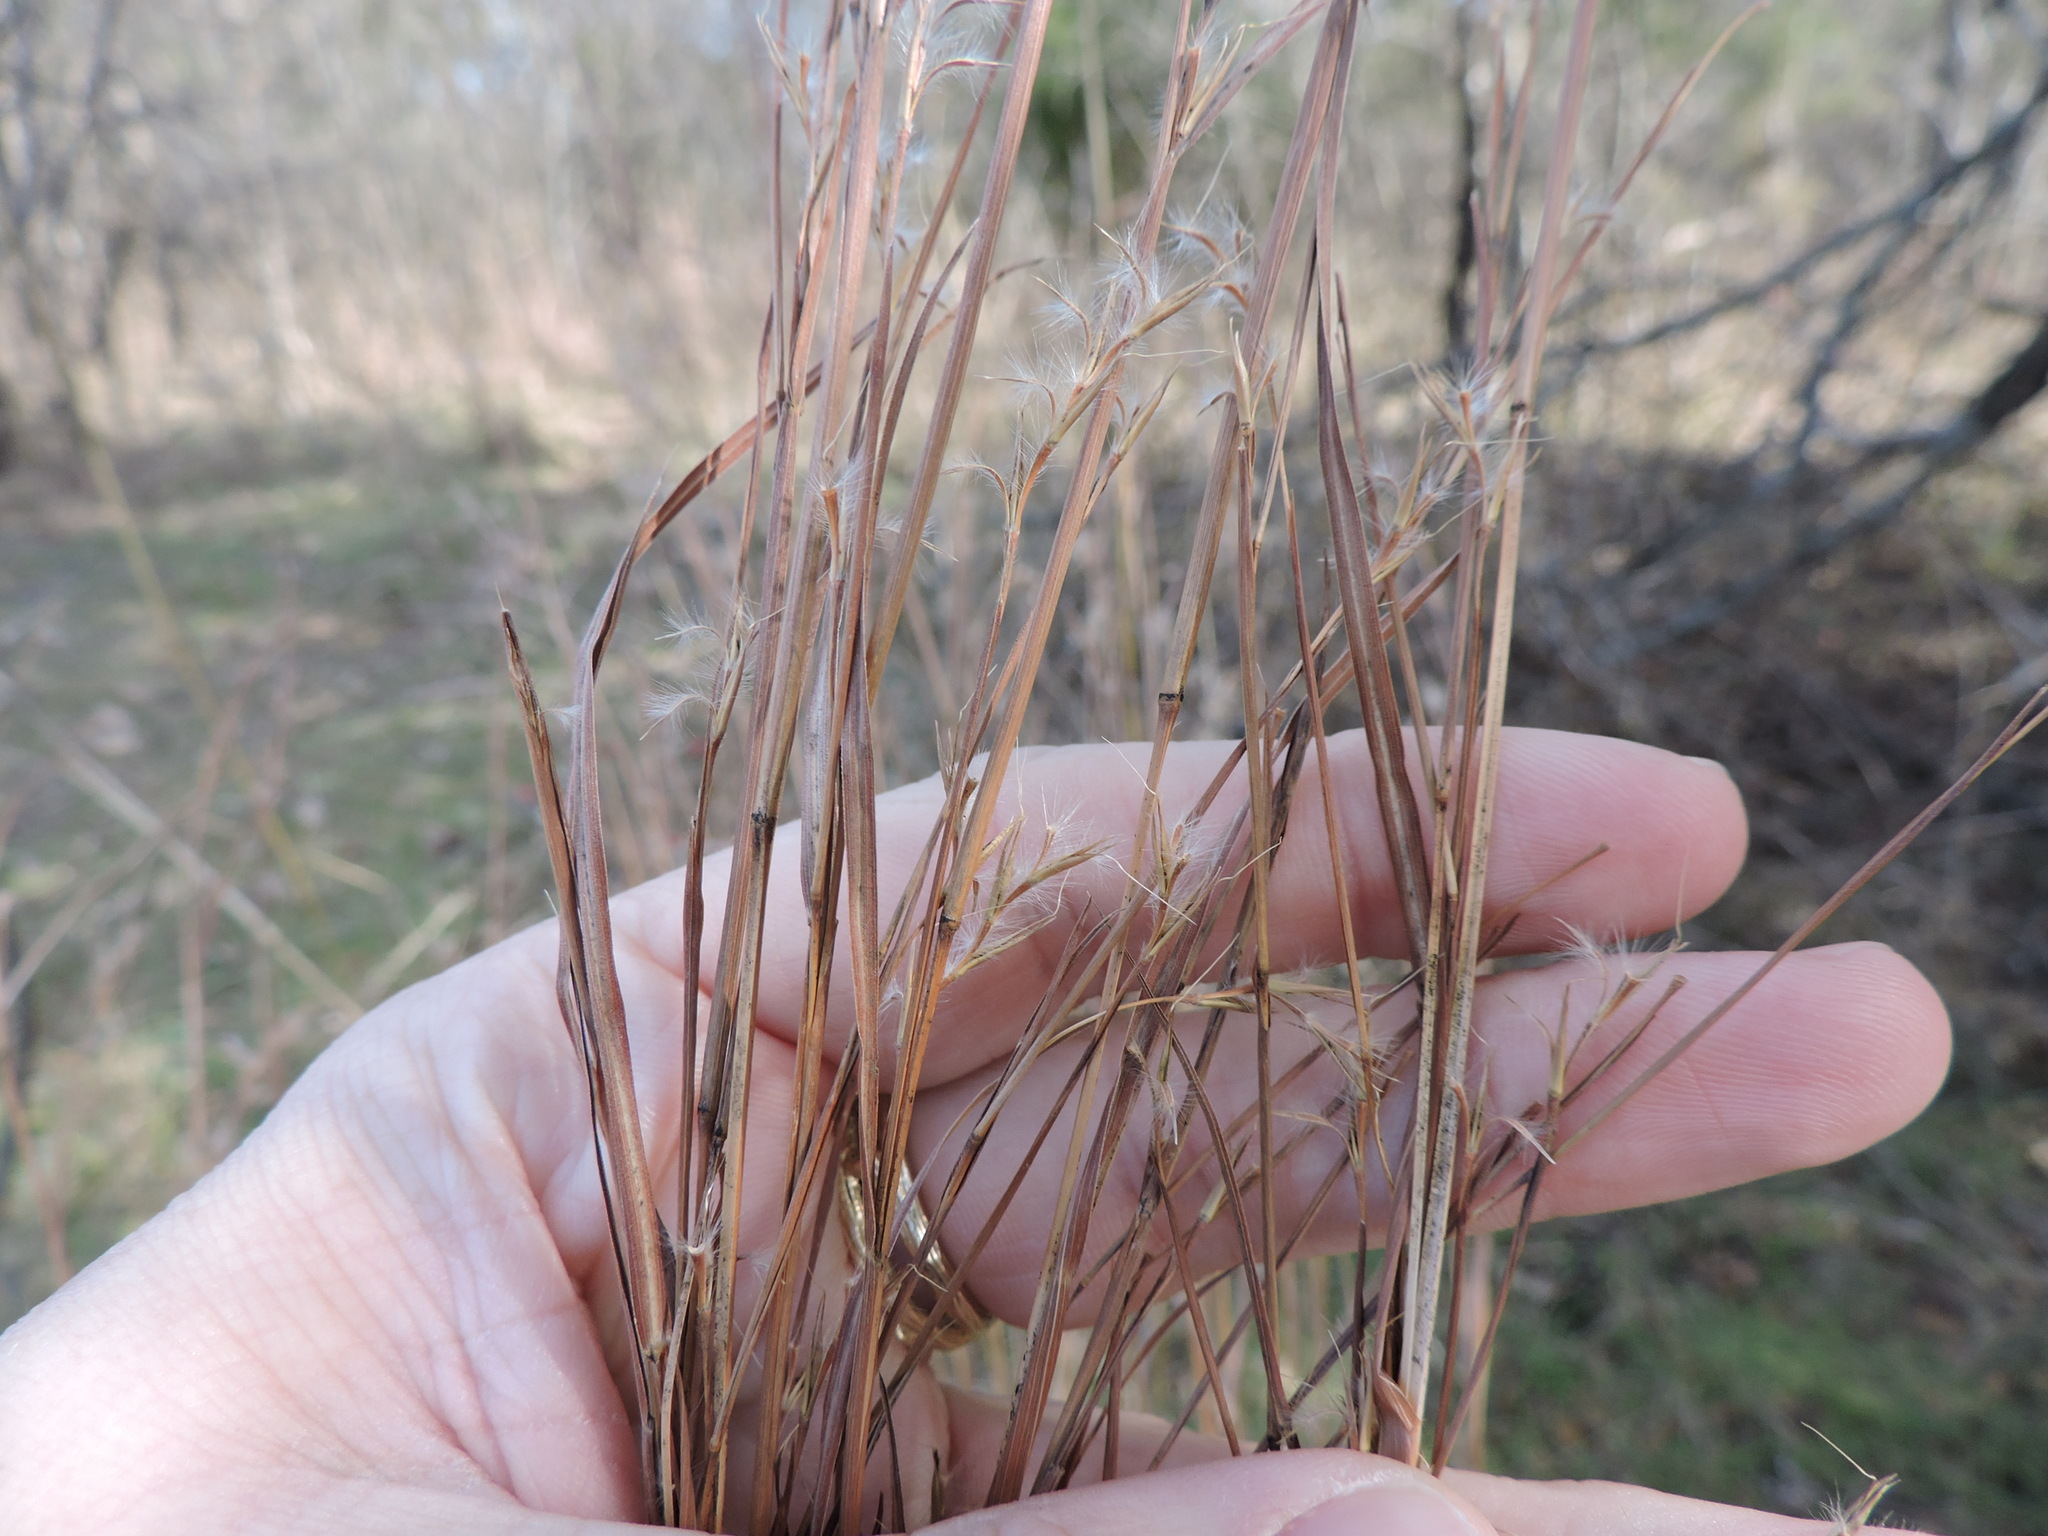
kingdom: Plantae
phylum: Tracheophyta
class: Liliopsida
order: Poales
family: Poaceae
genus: Schizachyrium
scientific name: Schizachyrium scoparium
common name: Little bluestem
